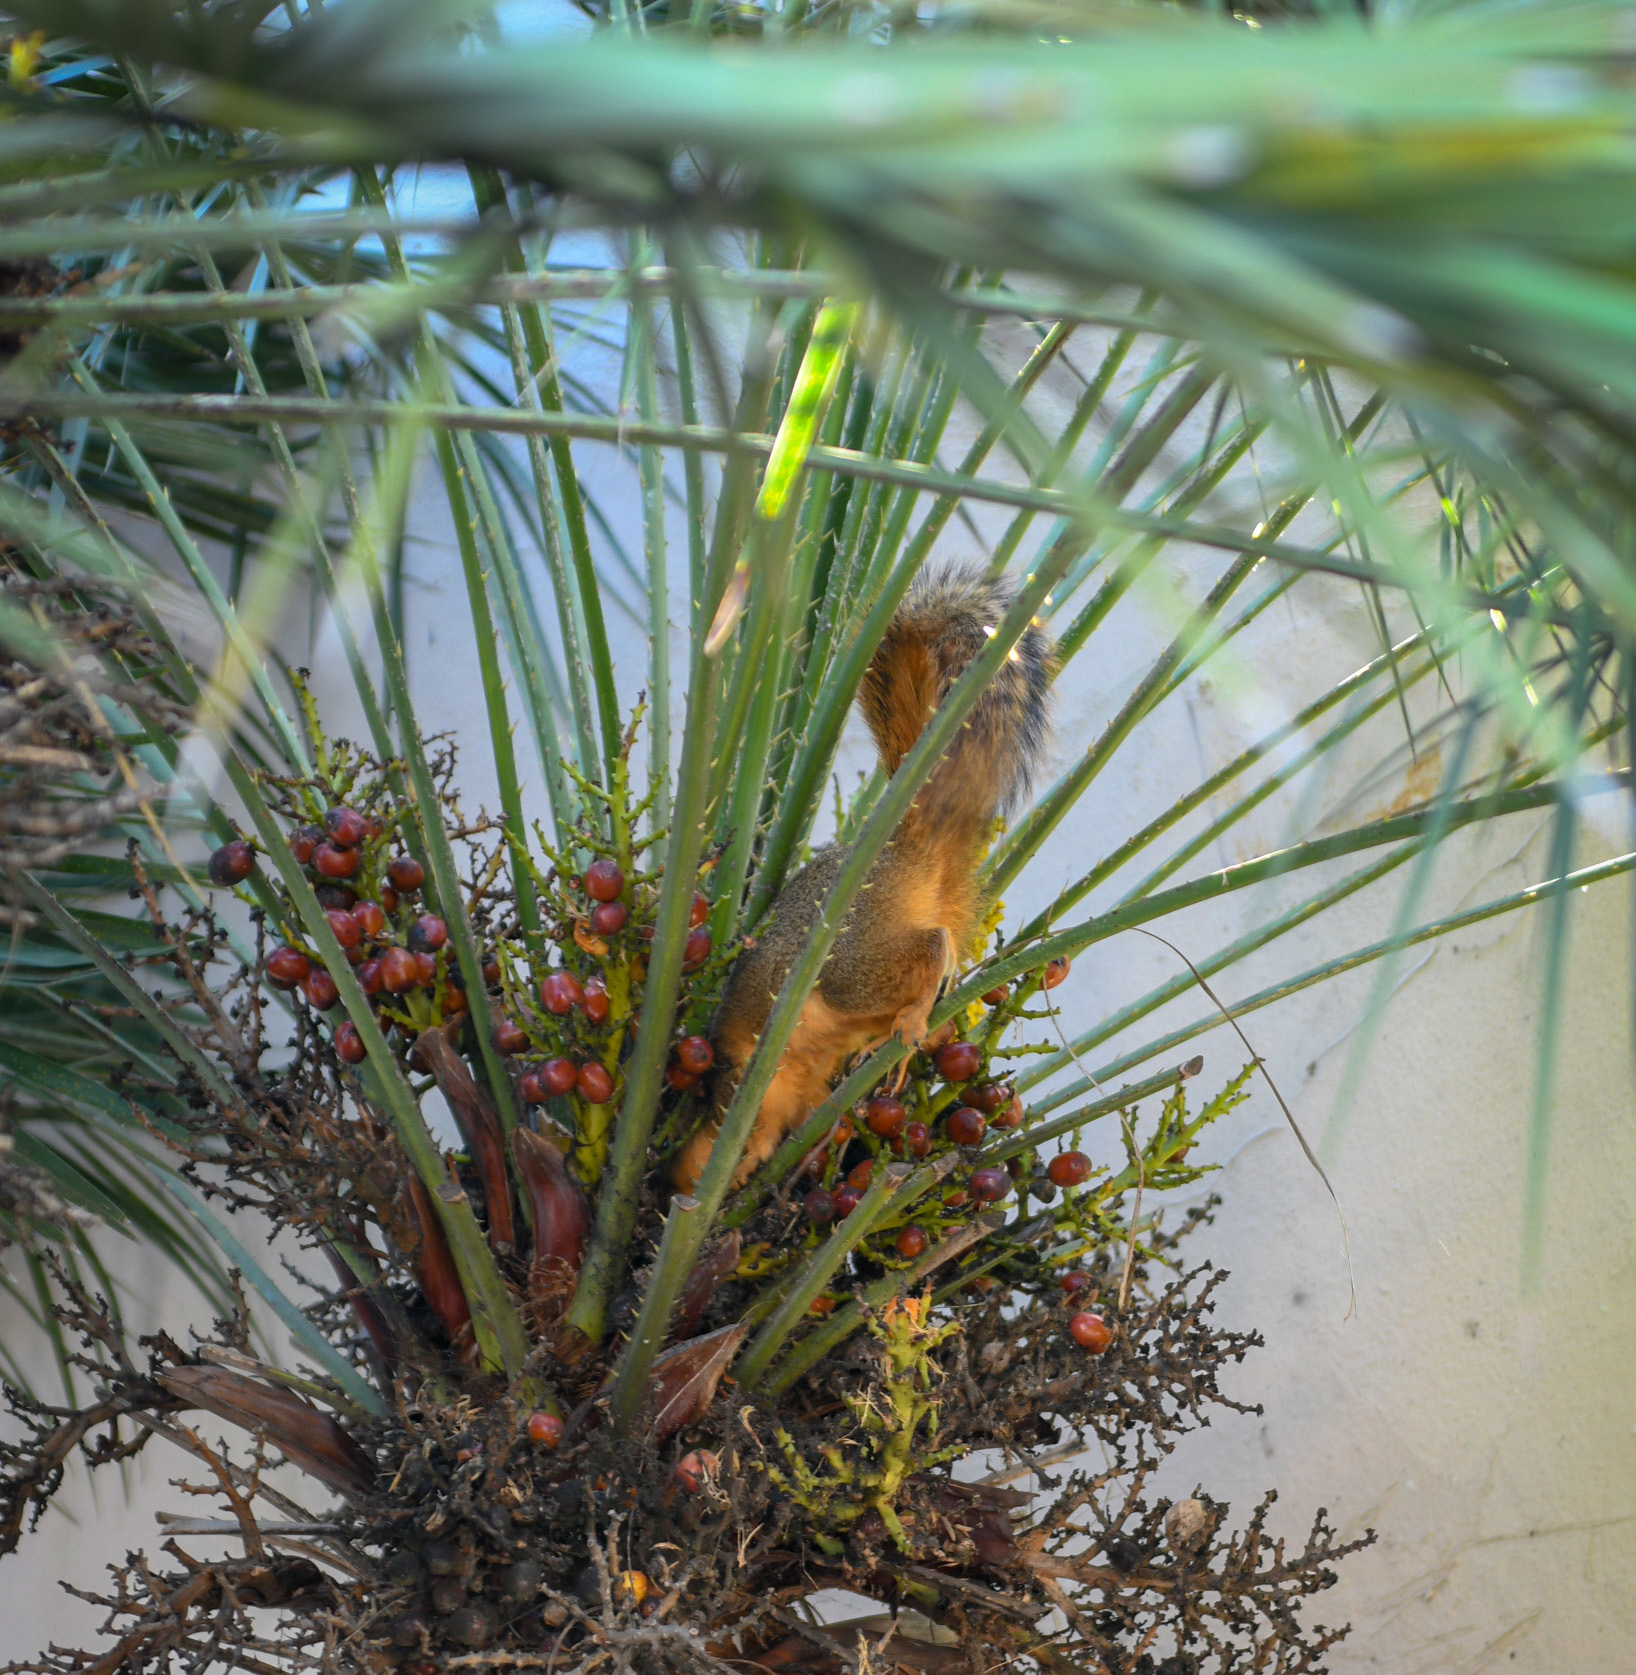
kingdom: Animalia
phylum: Chordata
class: Mammalia
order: Rodentia
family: Sciuridae
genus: Sciurus
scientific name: Sciurus niger
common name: Fox squirrel
